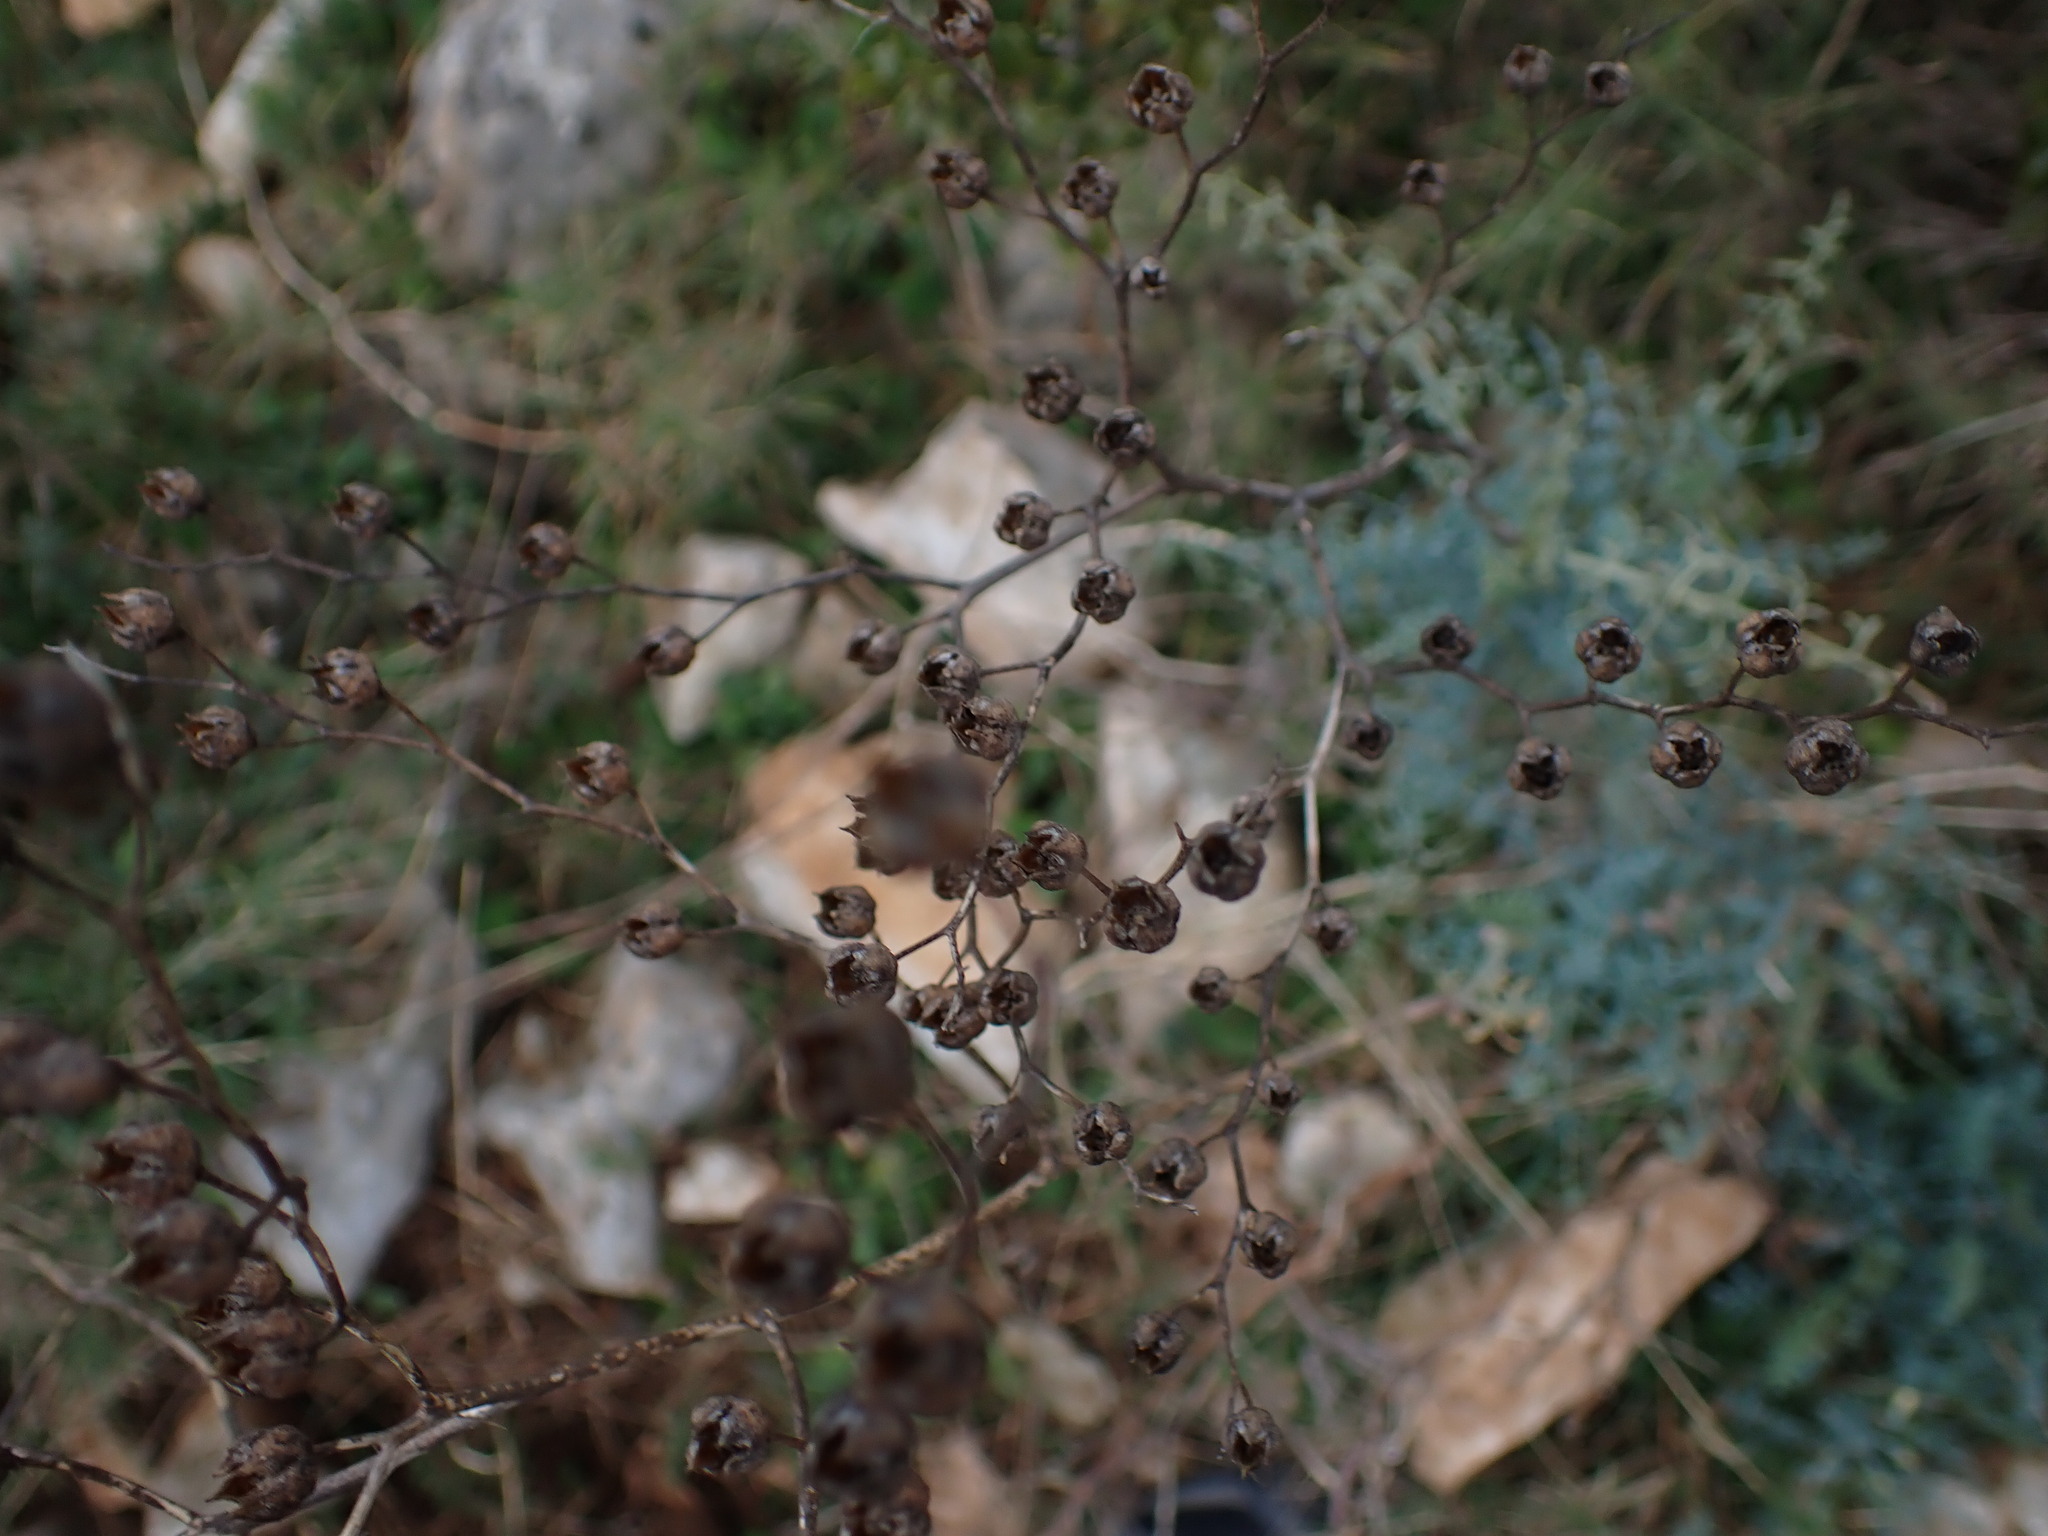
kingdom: Plantae
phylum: Tracheophyta
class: Magnoliopsida
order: Sapindales
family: Rutaceae
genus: Ruta
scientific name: Ruta angustifolia
